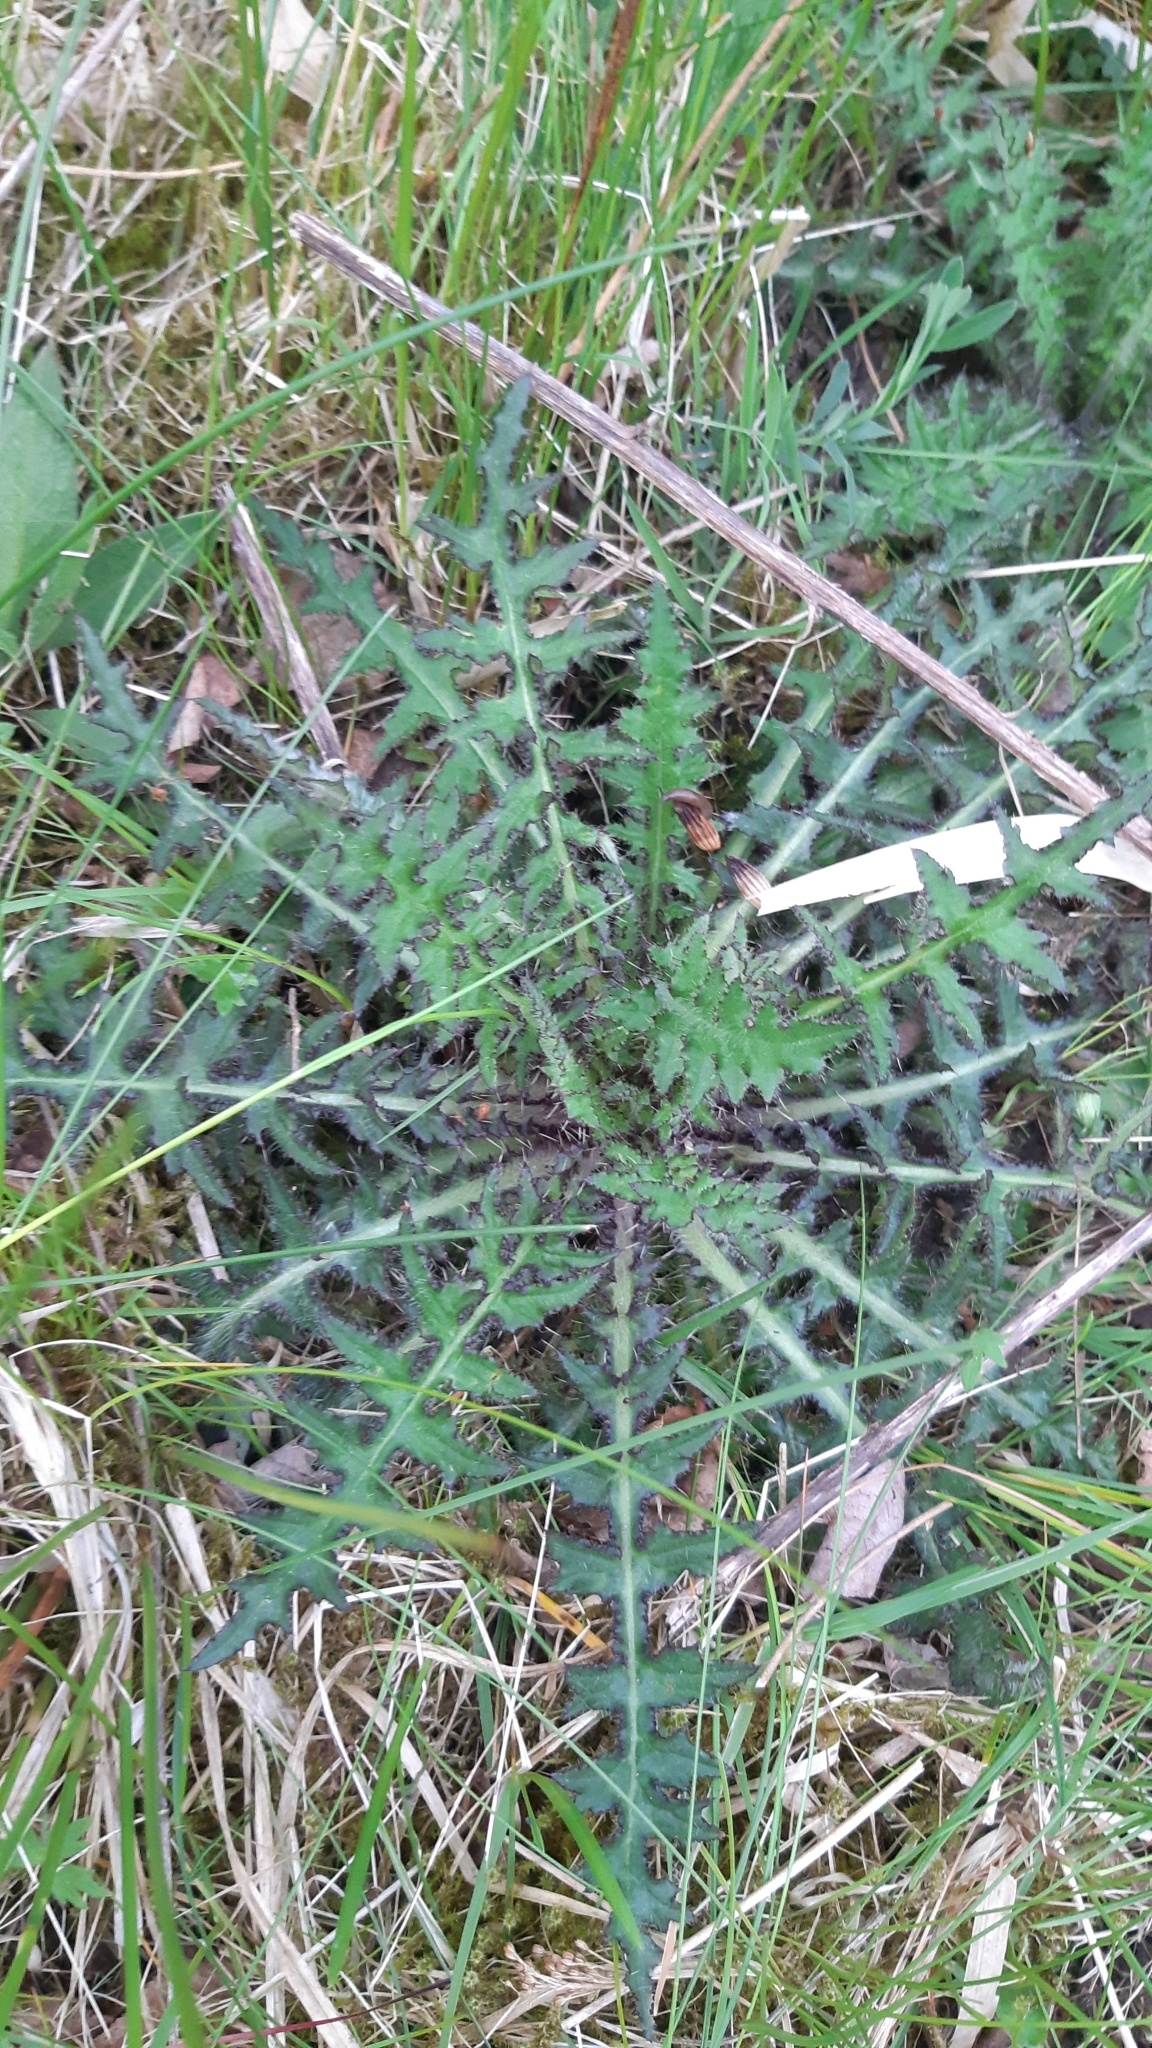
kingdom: Plantae
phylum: Tracheophyta
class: Magnoliopsida
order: Asterales
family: Asteraceae
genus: Cirsium
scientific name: Cirsium palustre
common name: Marsh thistle
